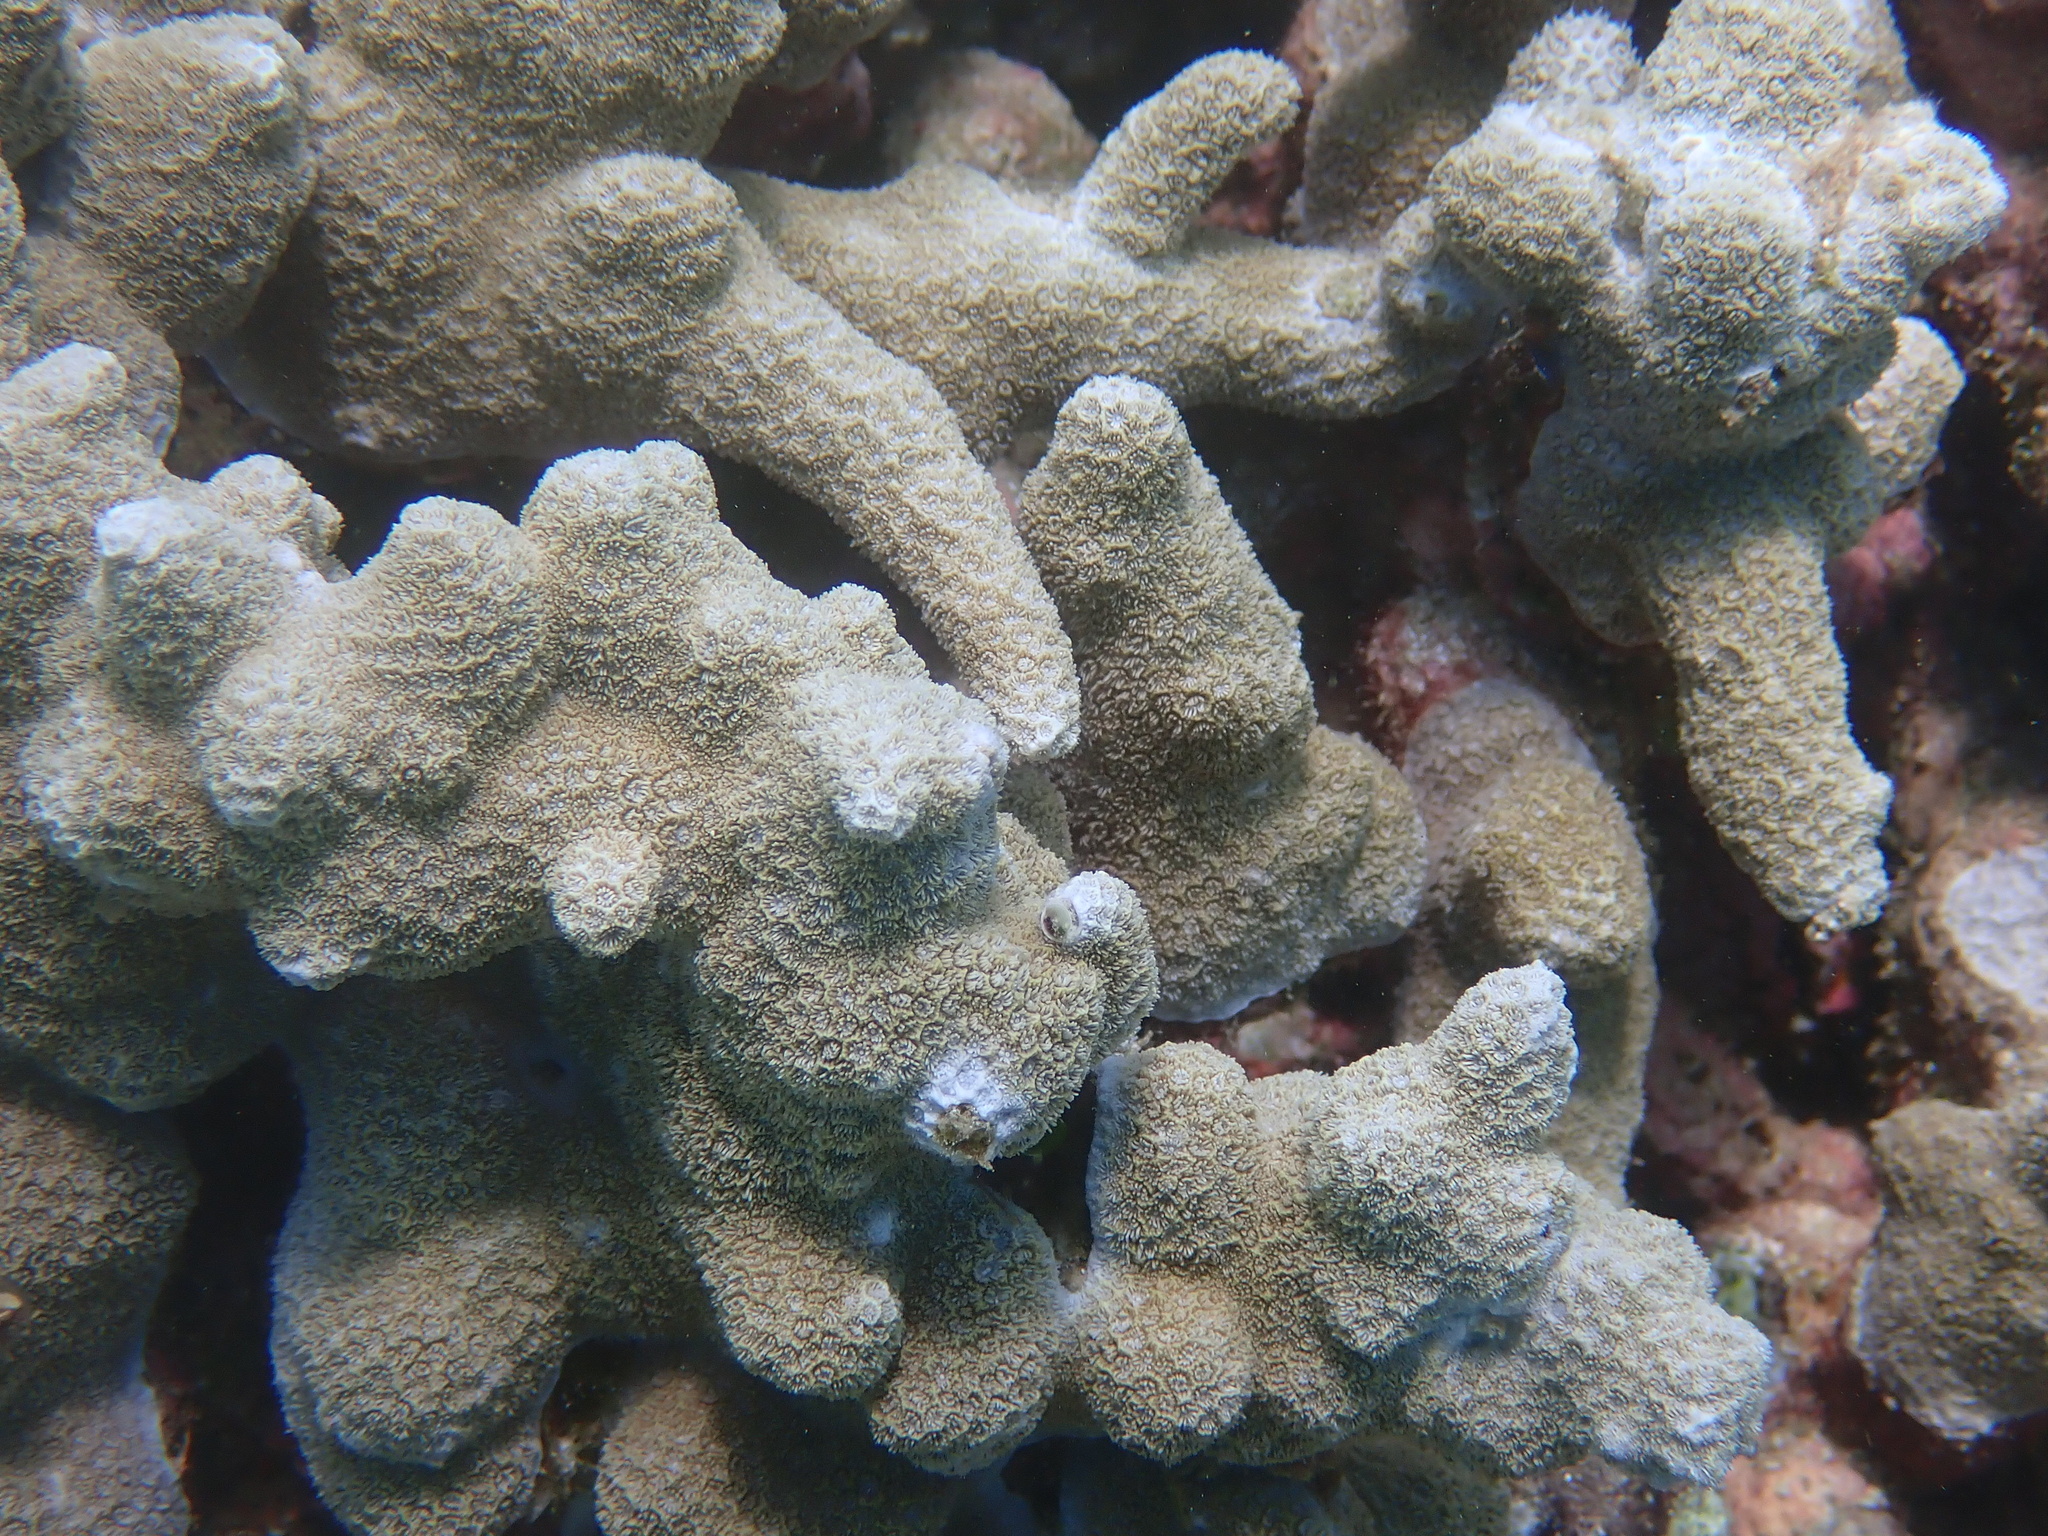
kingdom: Animalia
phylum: Cnidaria
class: Anthozoa
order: Scleractinia
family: Poritidae
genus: Porites
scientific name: Porites tuberculosus
